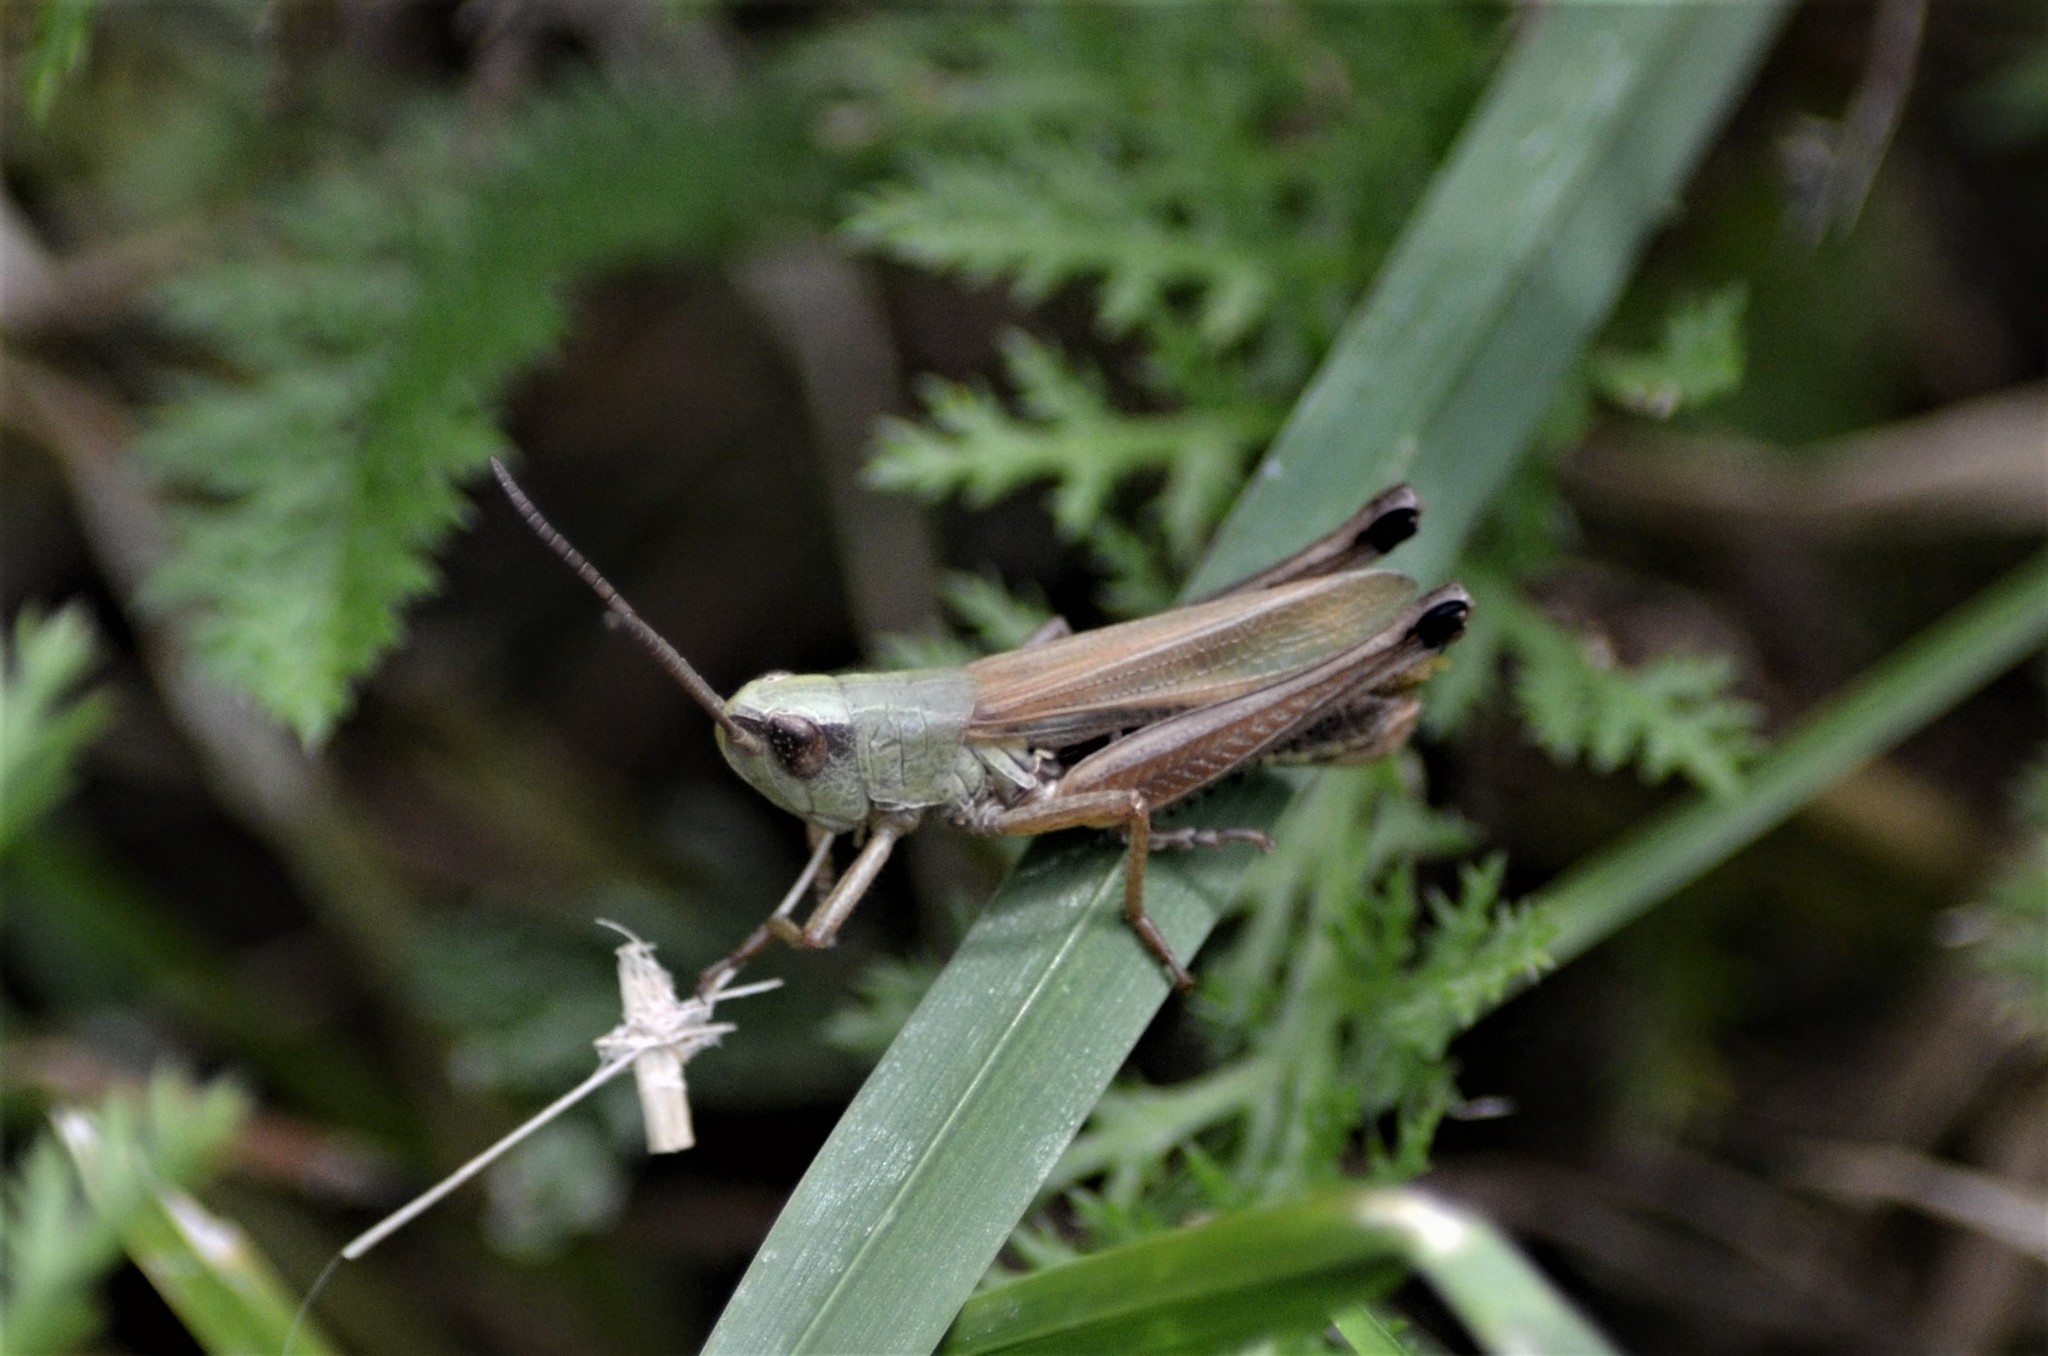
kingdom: Animalia
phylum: Arthropoda
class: Insecta
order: Orthoptera
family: Acrididae
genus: Pseudochorthippus
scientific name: Pseudochorthippus parallelus
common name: Meadow grasshopper
